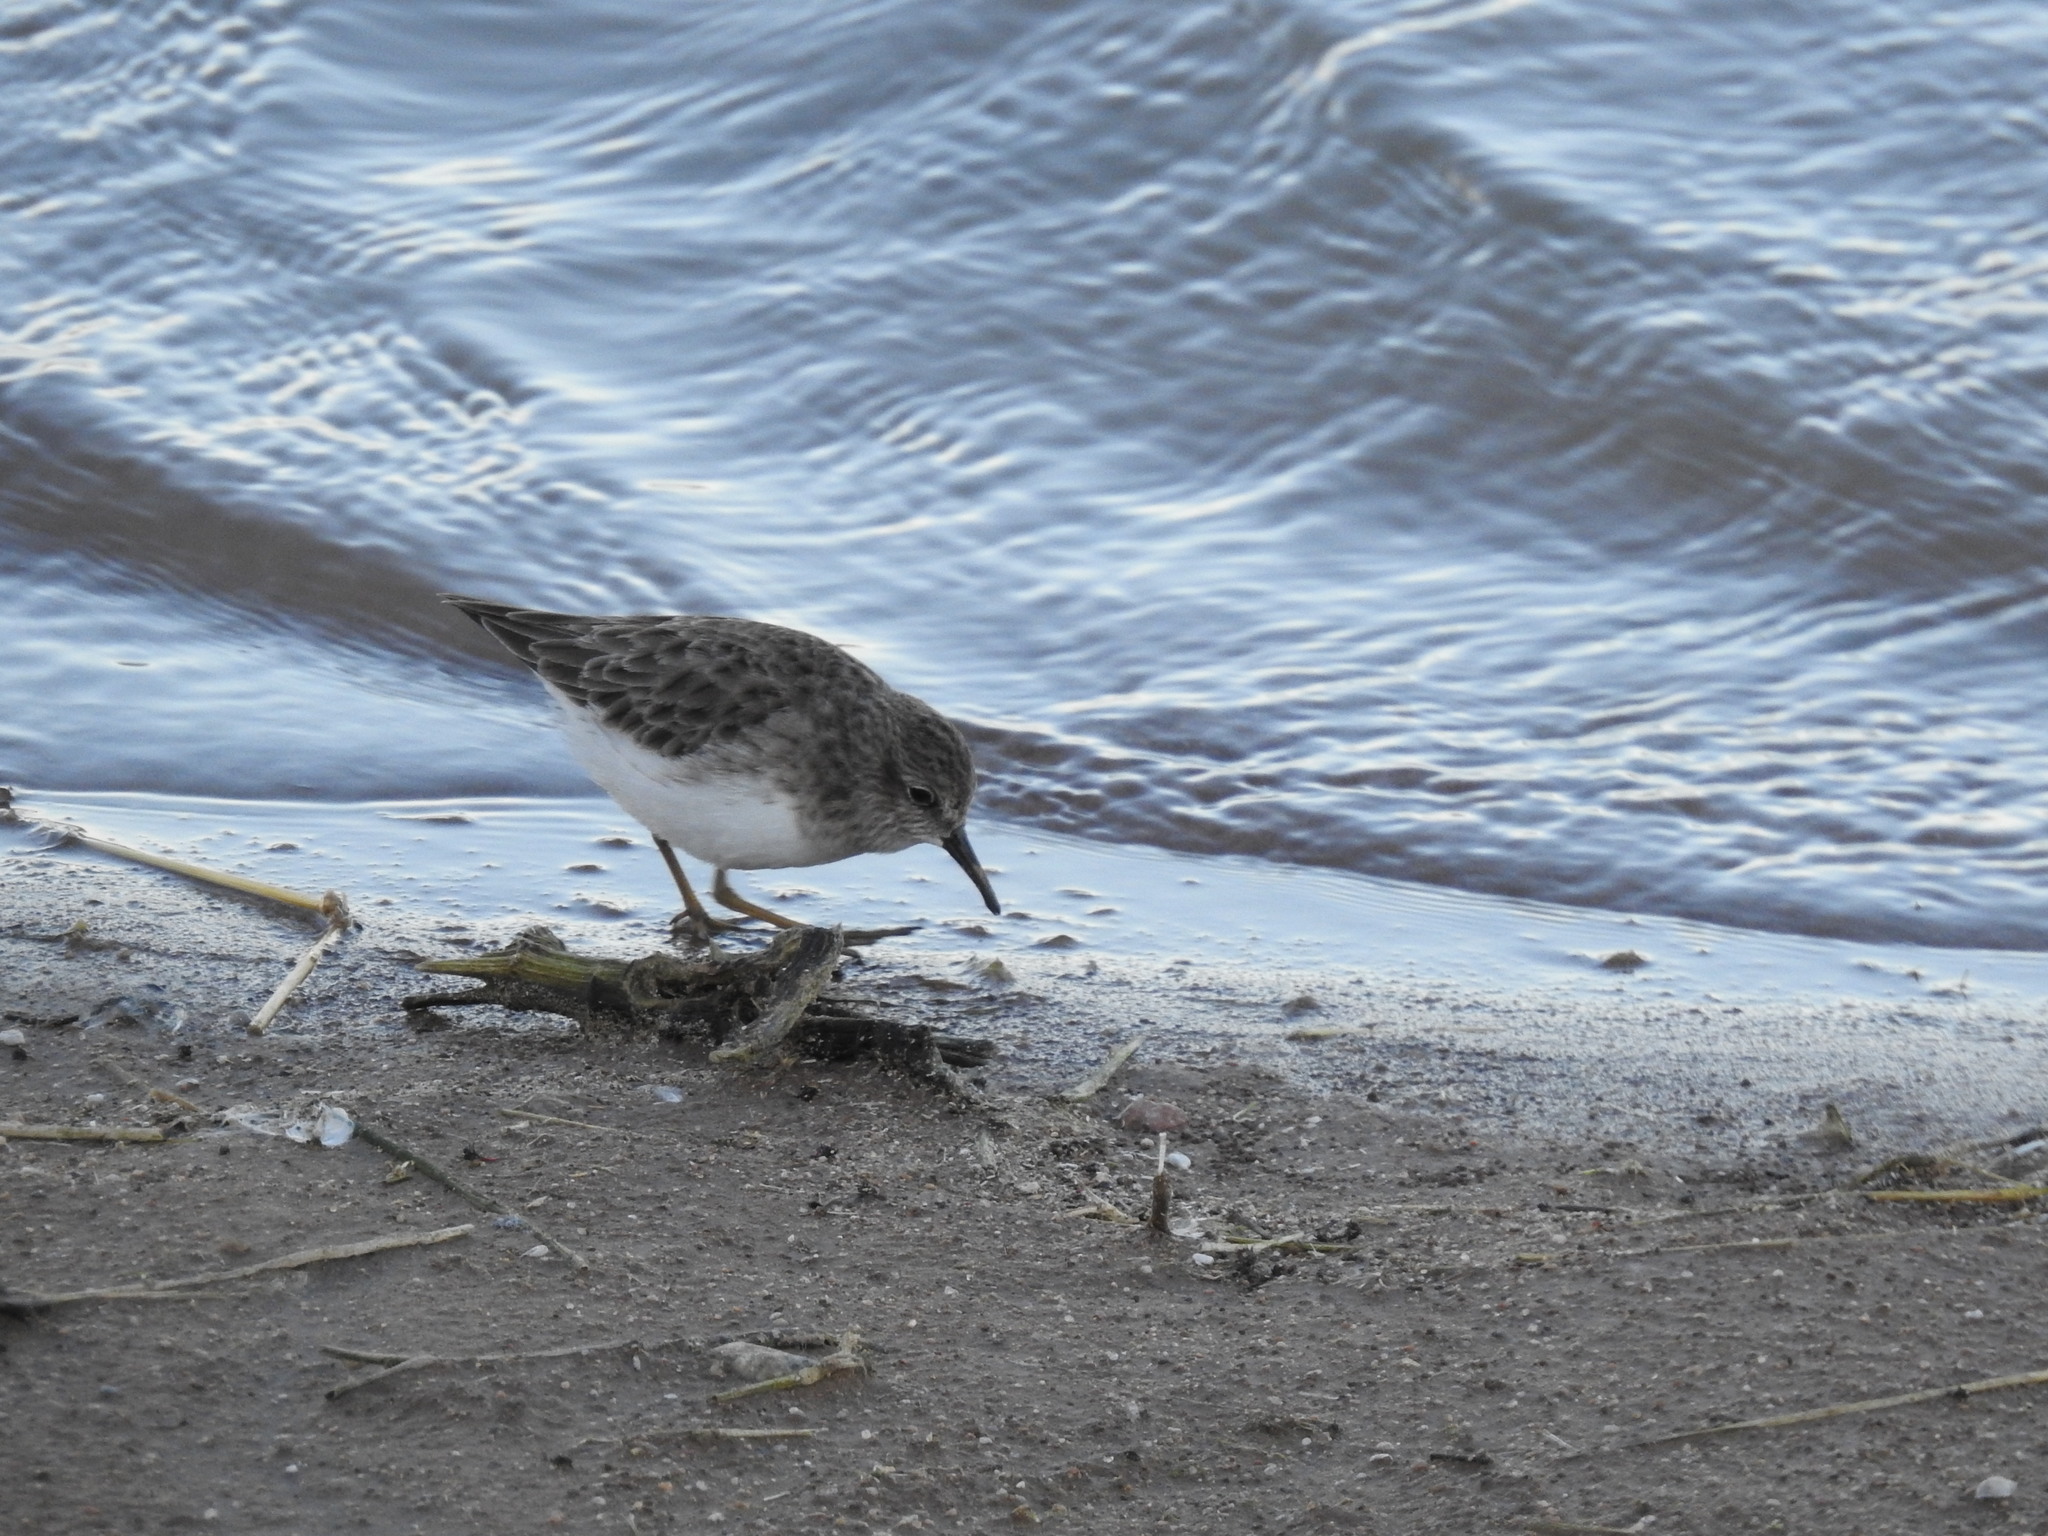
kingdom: Animalia
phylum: Chordata
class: Aves
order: Charadriiformes
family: Scolopacidae
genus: Calidris
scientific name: Calidris minutilla
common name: Least sandpiper
